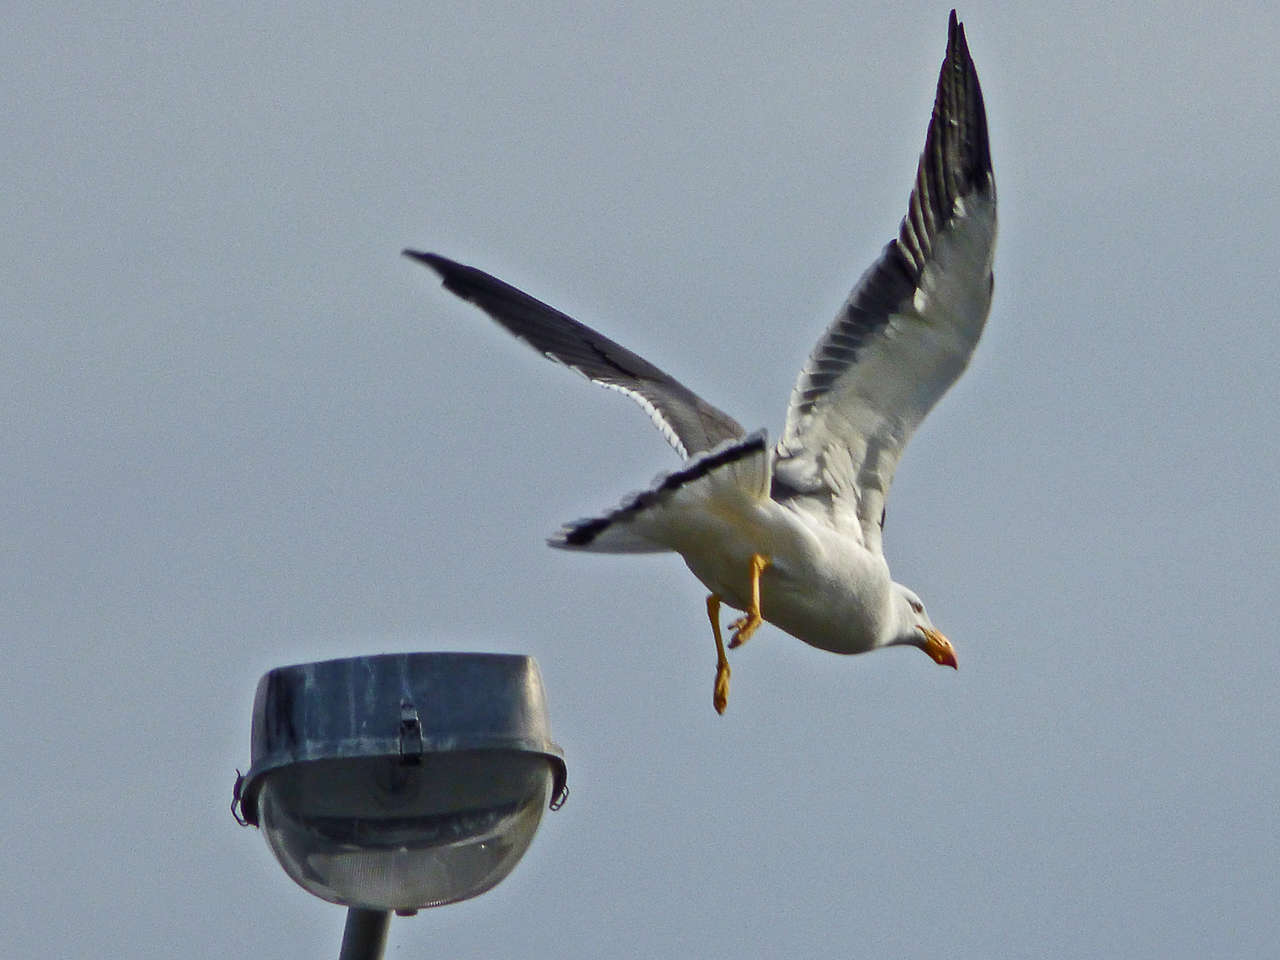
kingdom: Animalia
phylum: Chordata
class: Aves
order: Charadriiformes
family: Laridae
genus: Larus
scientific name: Larus pacificus
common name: Pacific gull
